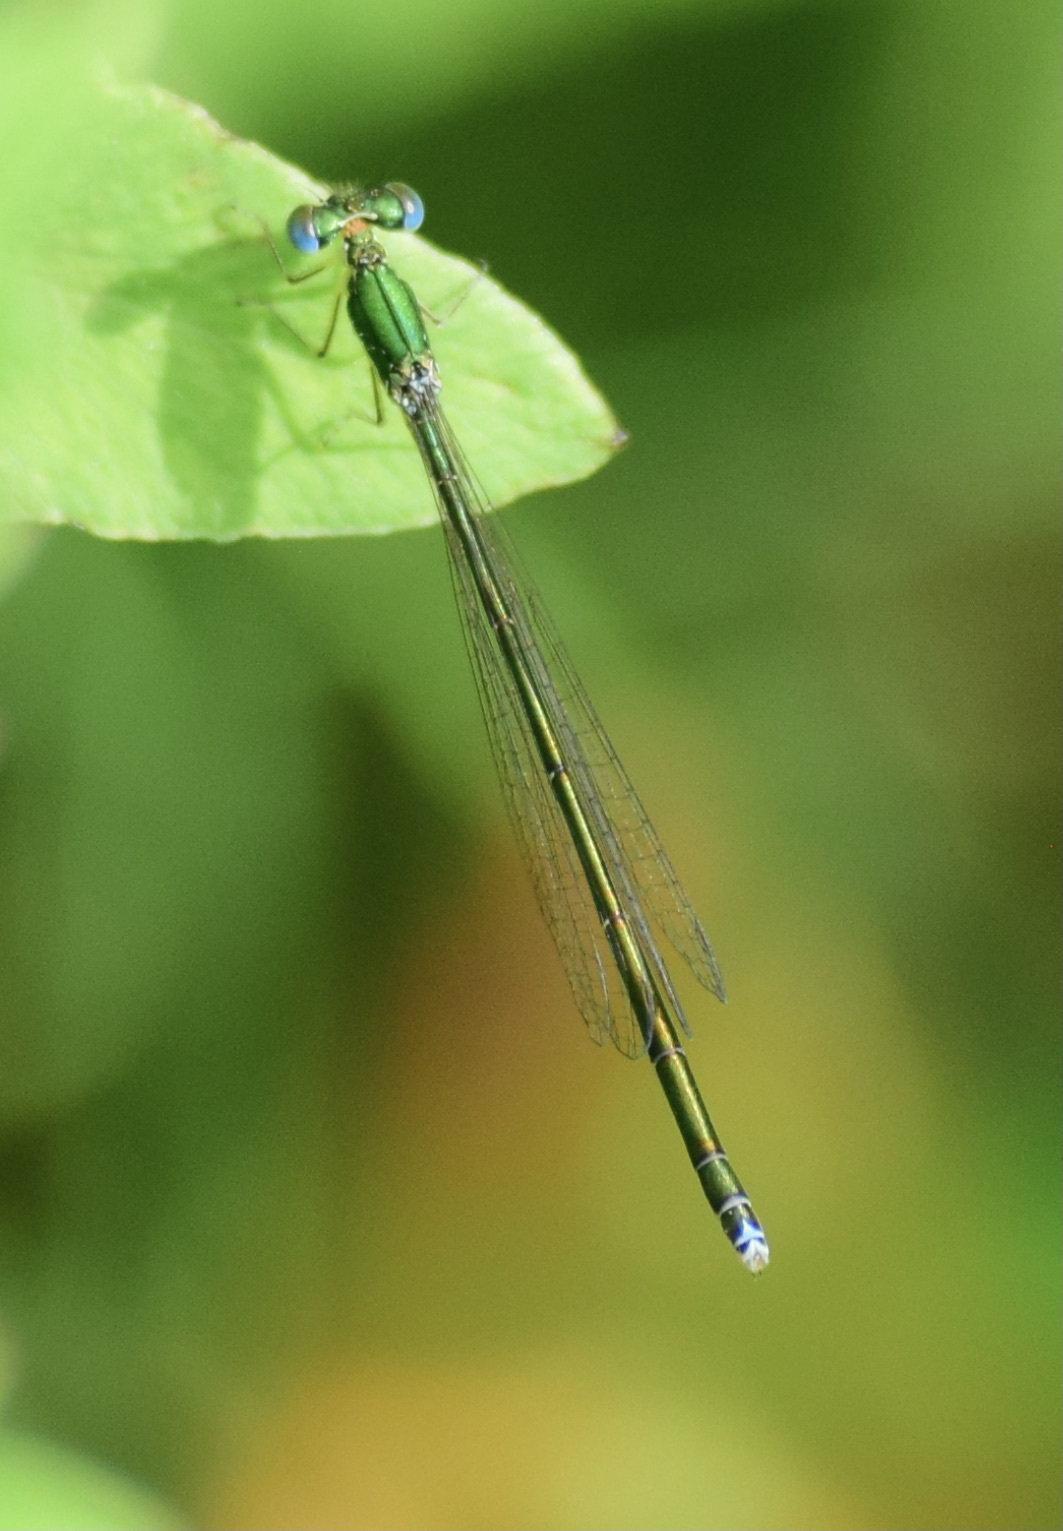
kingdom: Animalia
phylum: Arthropoda
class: Insecta
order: Odonata
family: Coenagrionidae
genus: Nehalennia
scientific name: Nehalennia irene
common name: Sedge sprite
